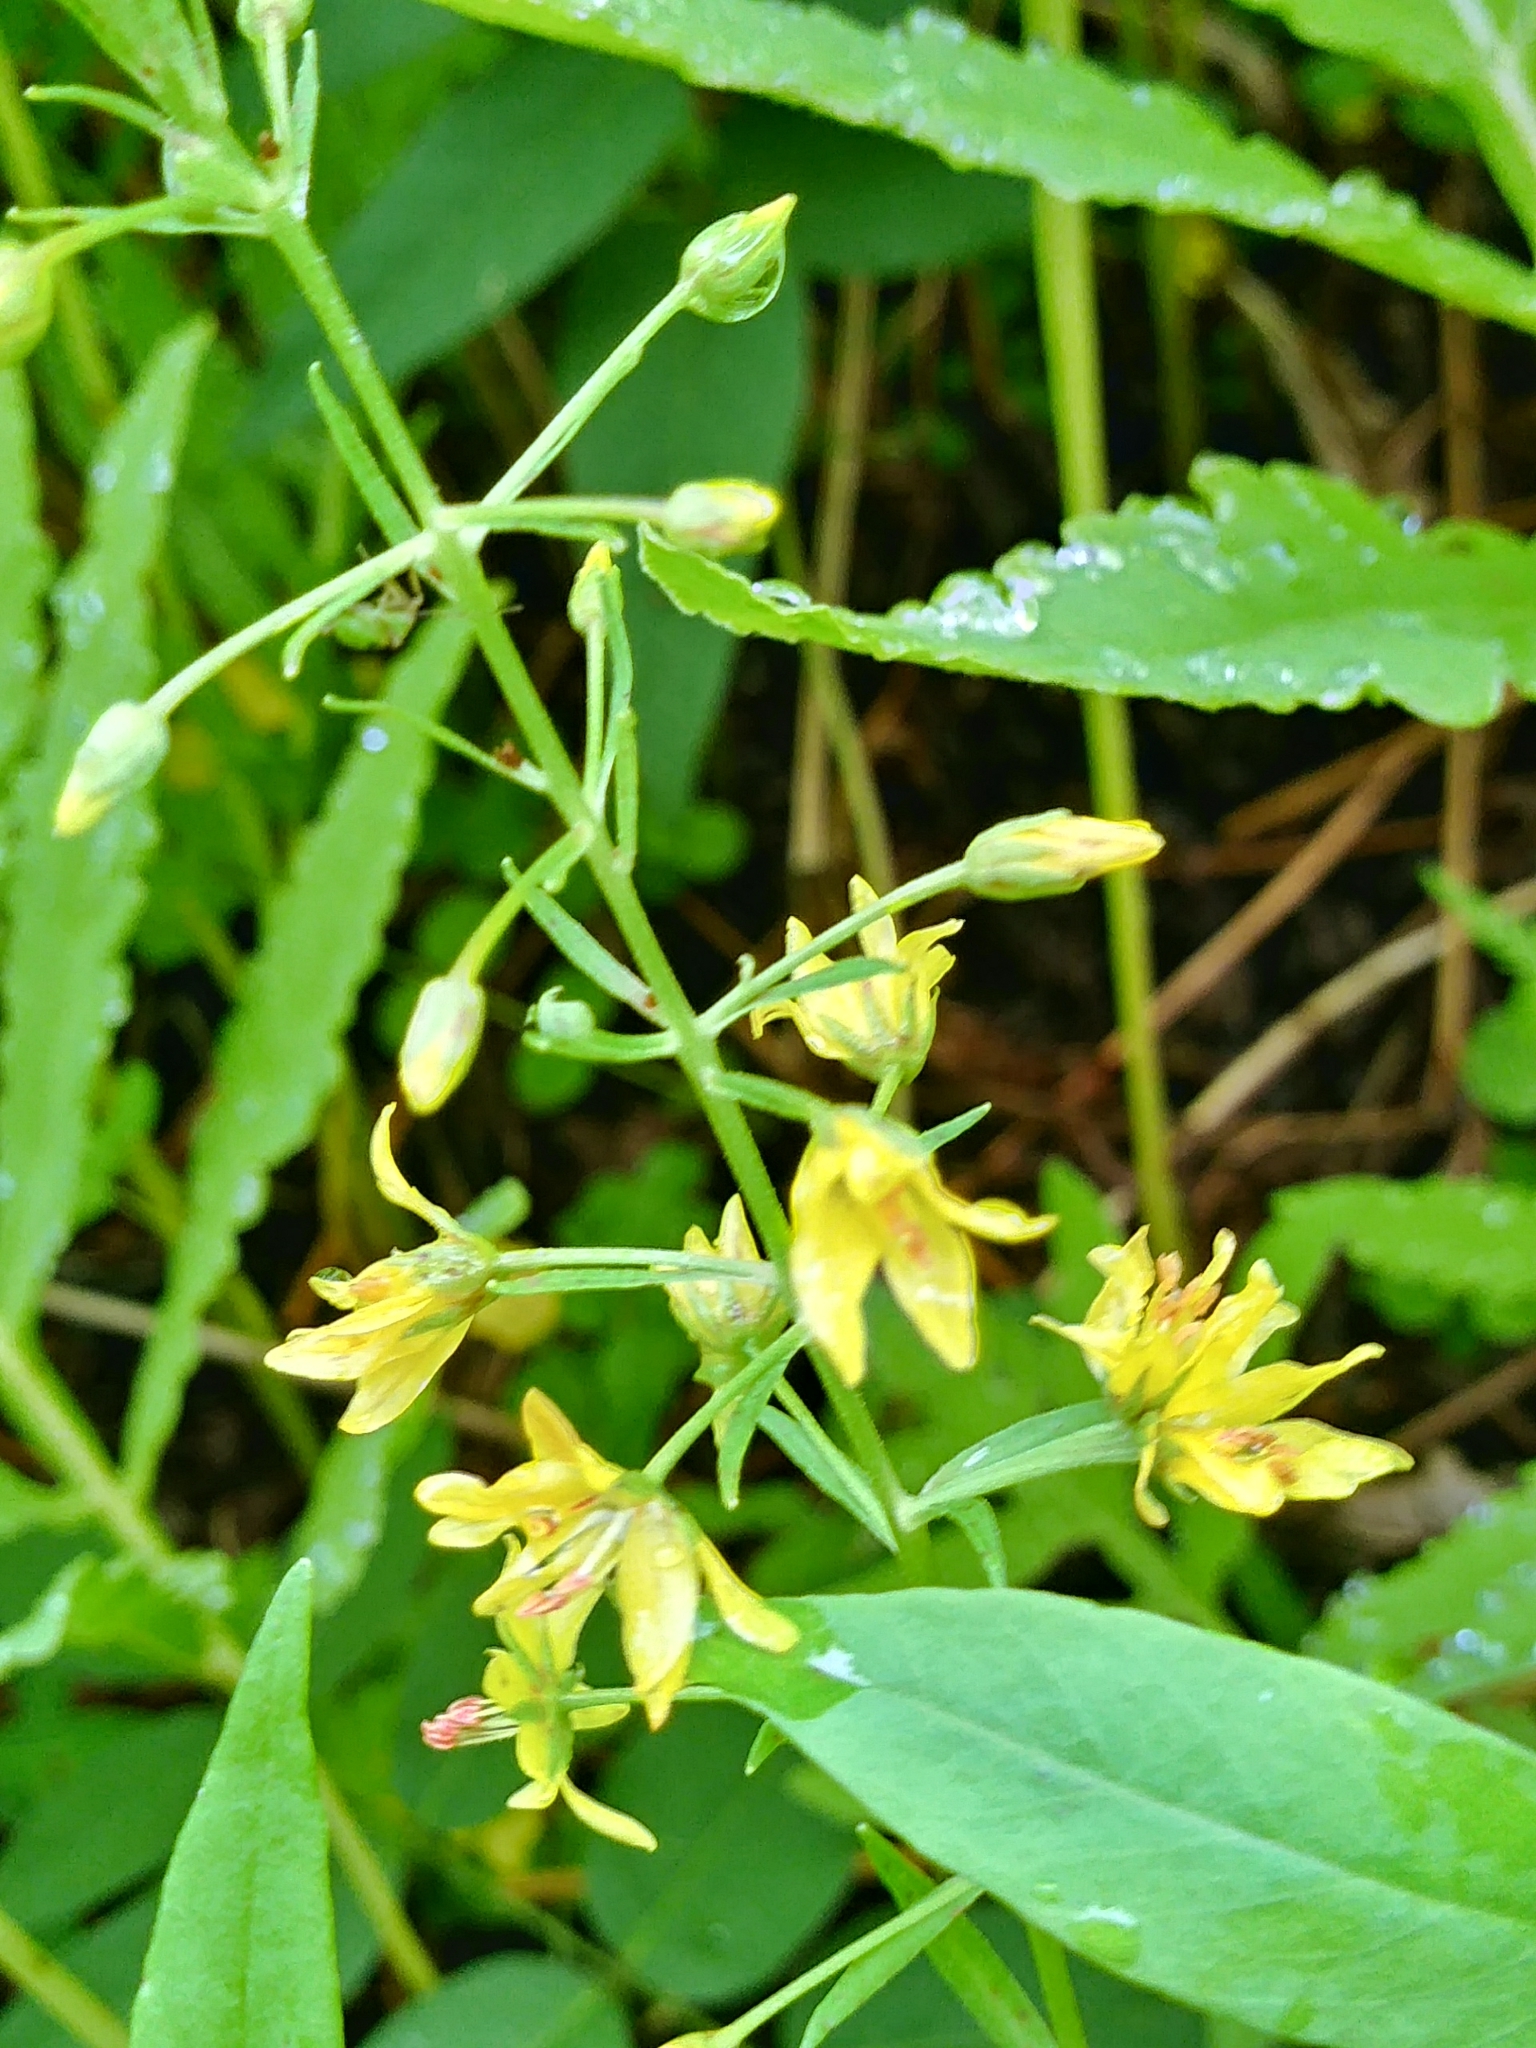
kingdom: Plantae
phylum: Tracheophyta
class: Magnoliopsida
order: Ericales
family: Primulaceae
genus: Lysimachia
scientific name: Lysimachia terrestris
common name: Lake loosestrife
